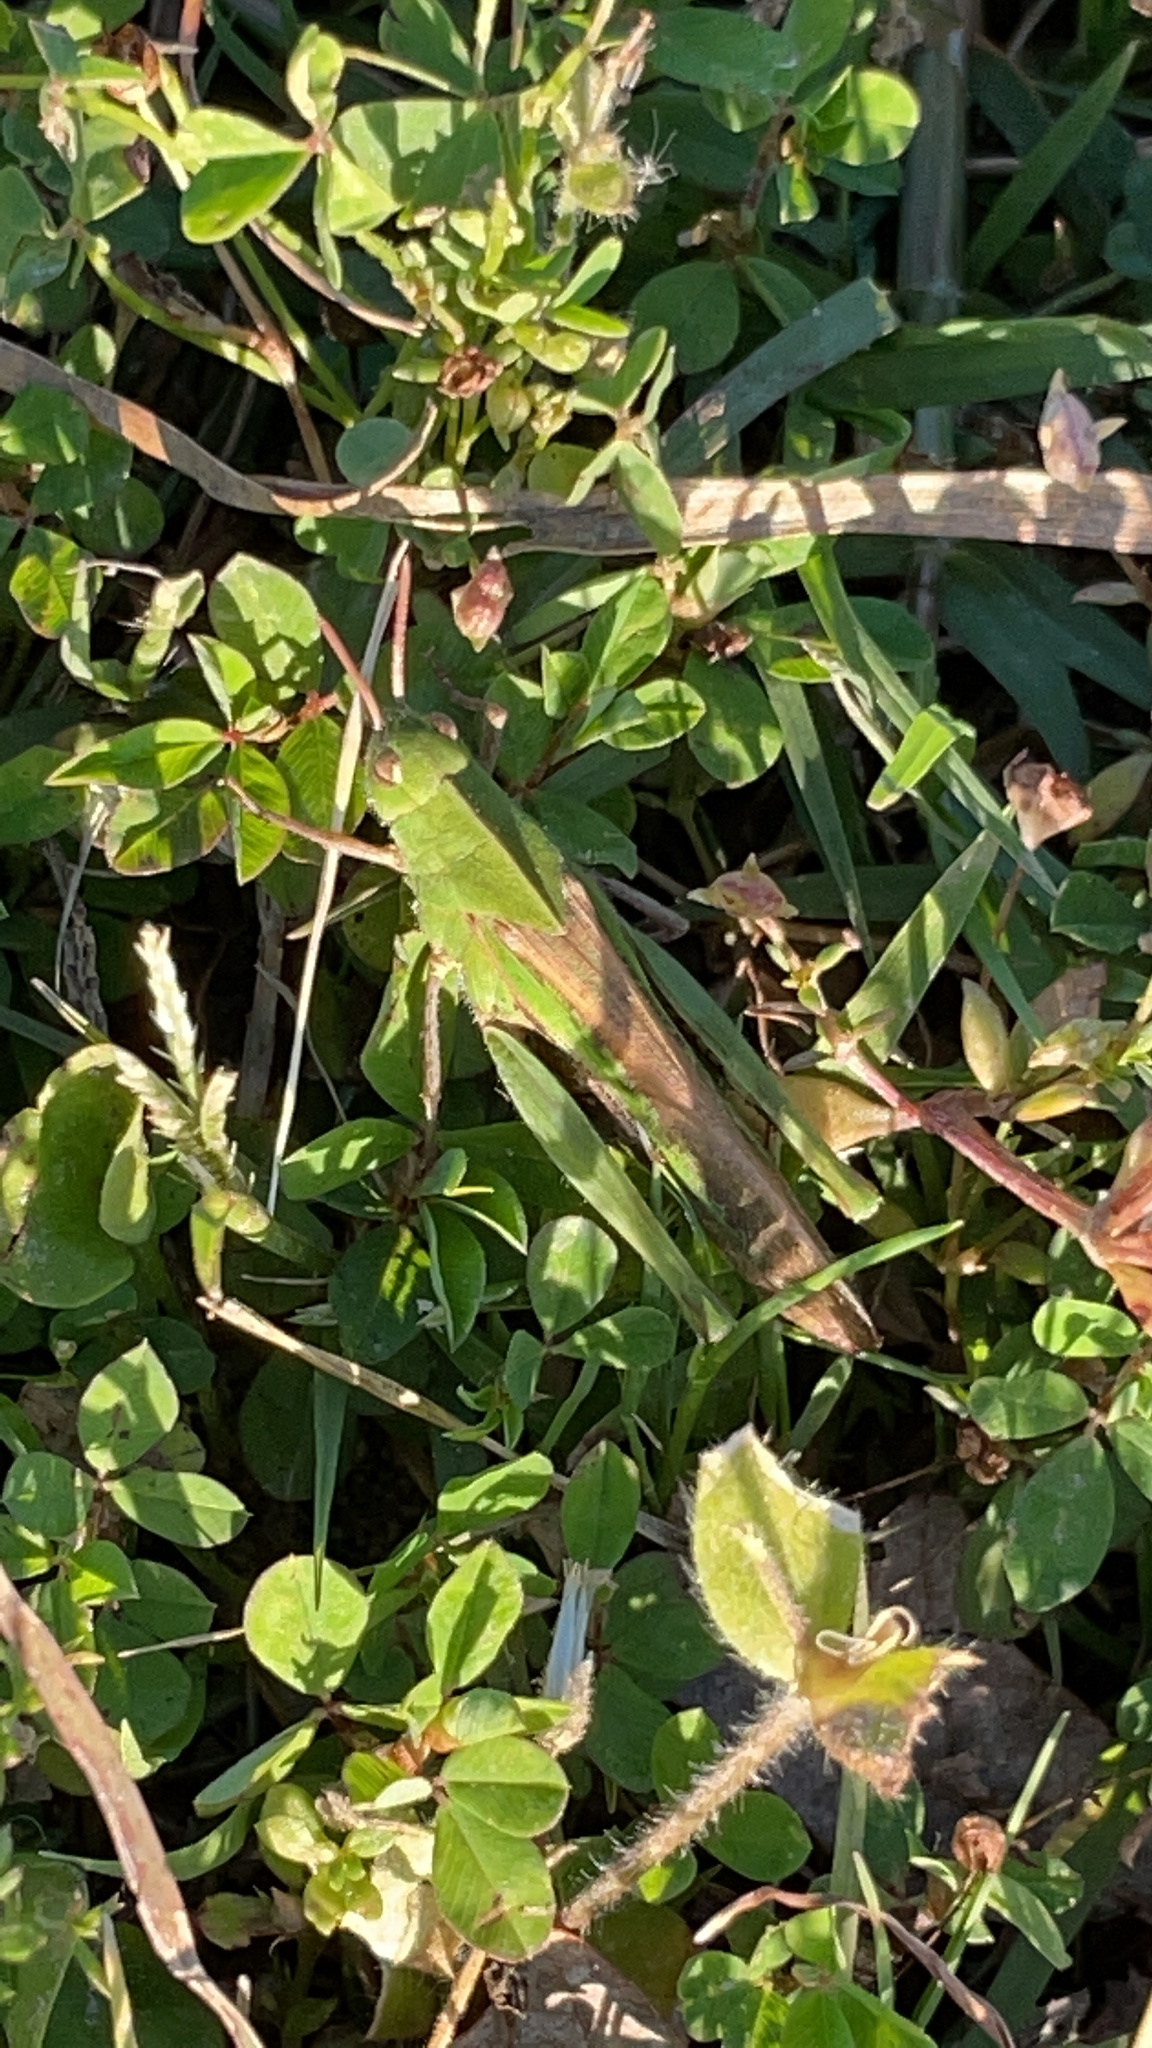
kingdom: Animalia
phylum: Arthropoda
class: Insecta
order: Orthoptera
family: Acrididae
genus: Chortophaga
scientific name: Chortophaga viridifasciata
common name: Green-striped grasshopper
